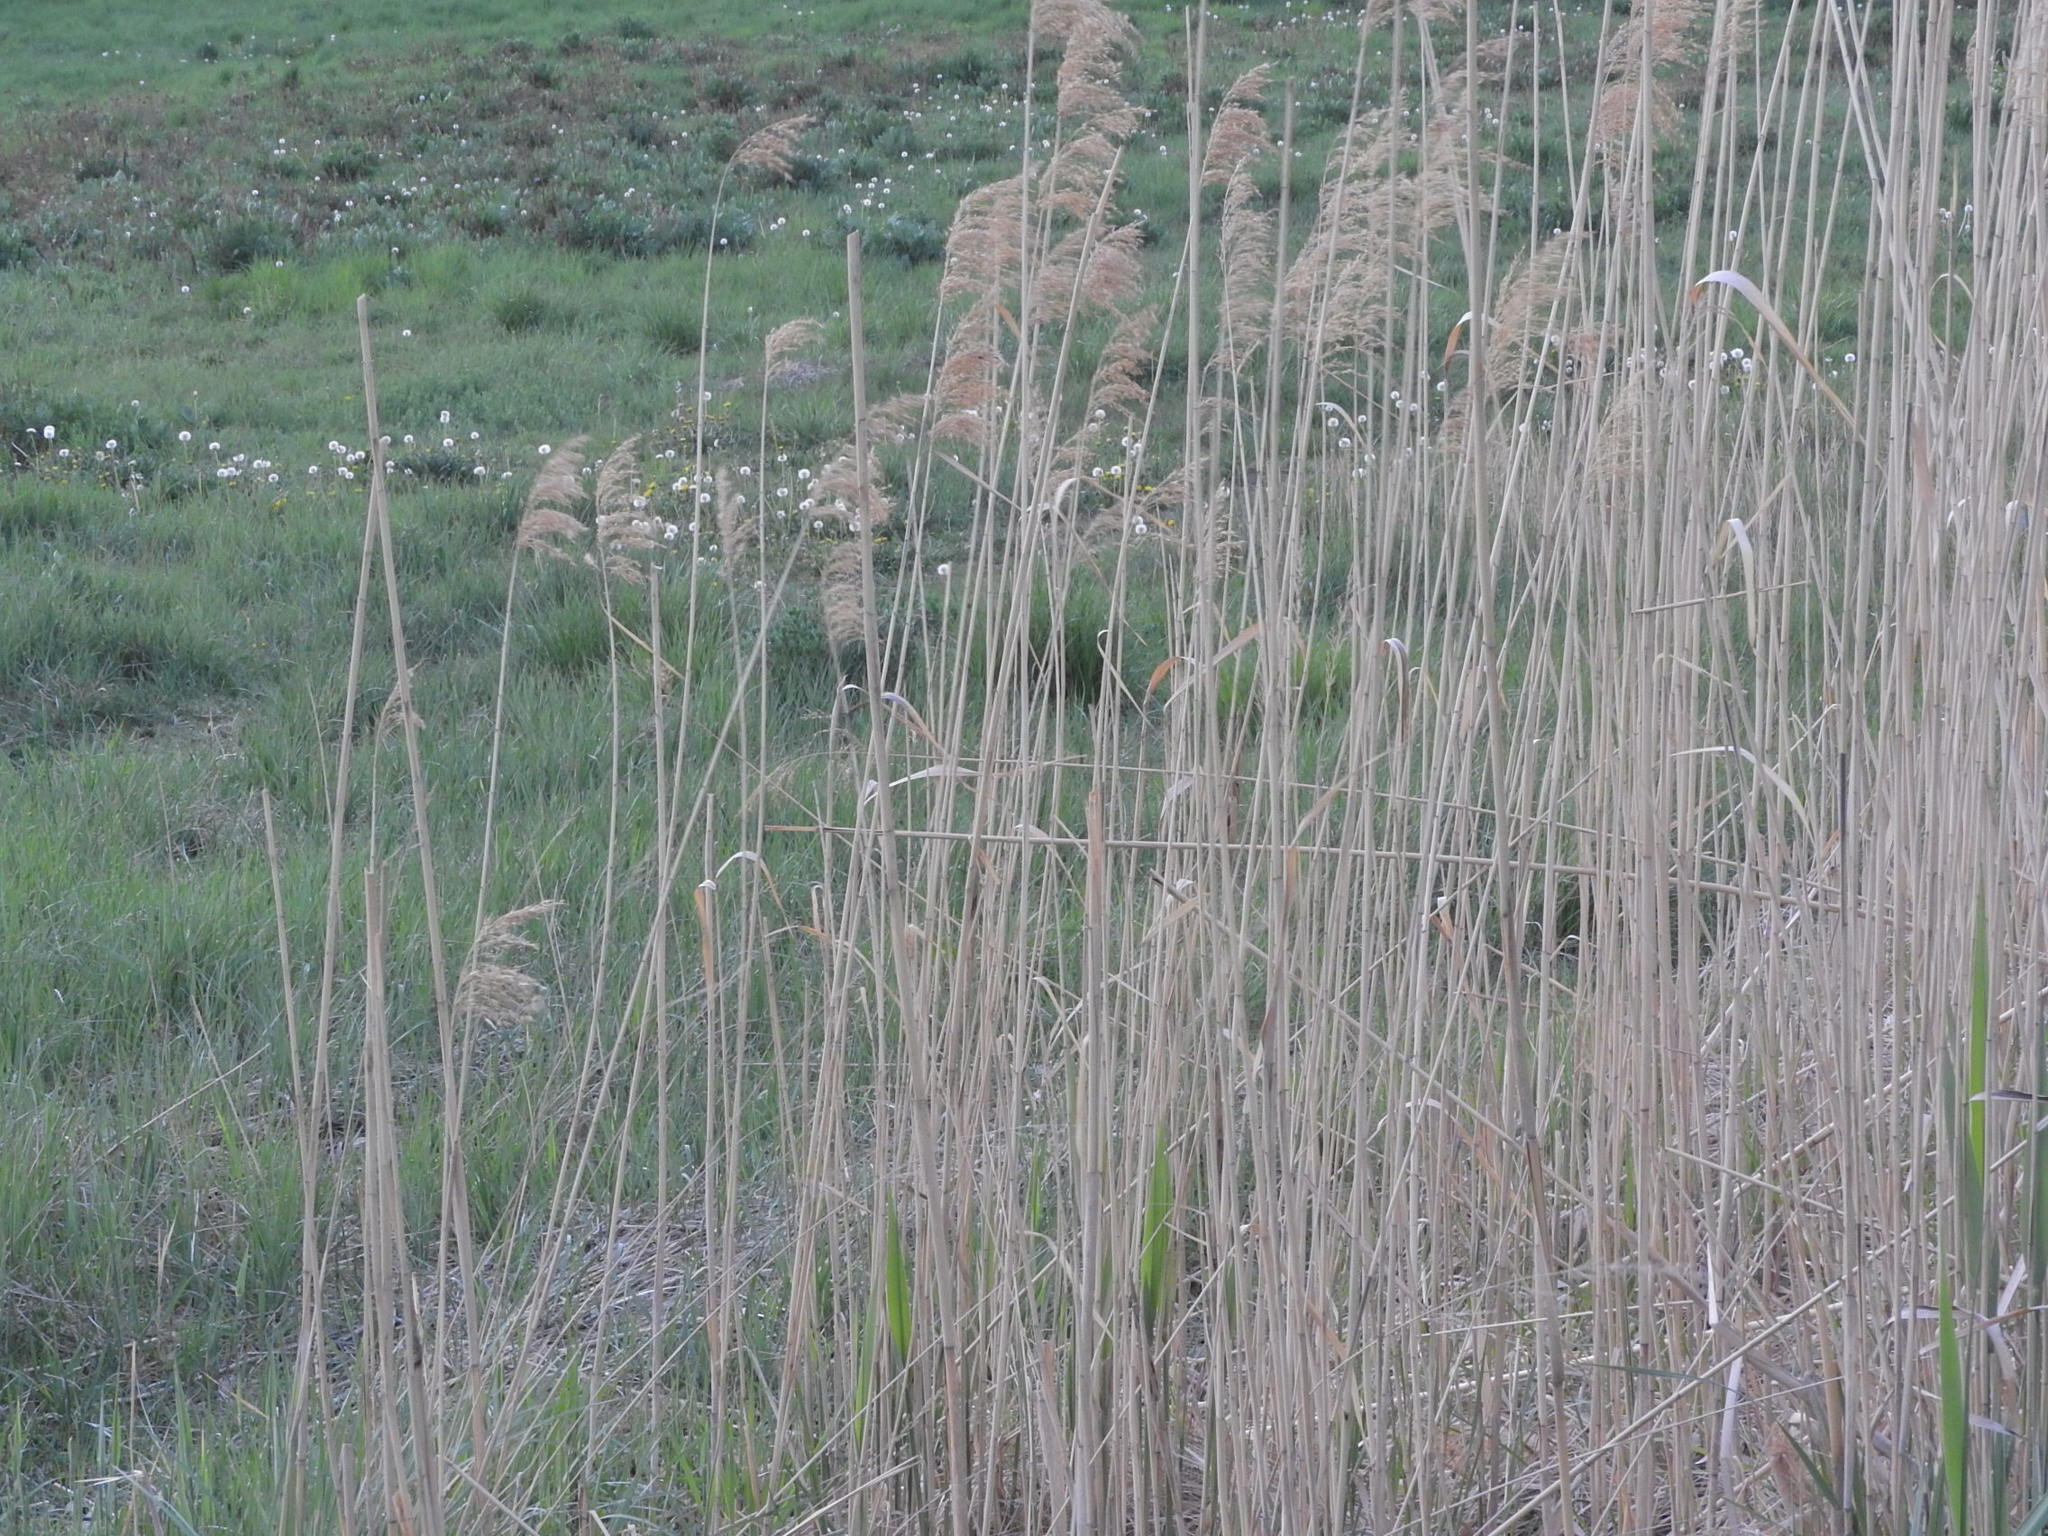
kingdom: Plantae
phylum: Tracheophyta
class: Liliopsida
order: Poales
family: Poaceae
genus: Phragmites
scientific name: Phragmites australis
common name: Common reed
